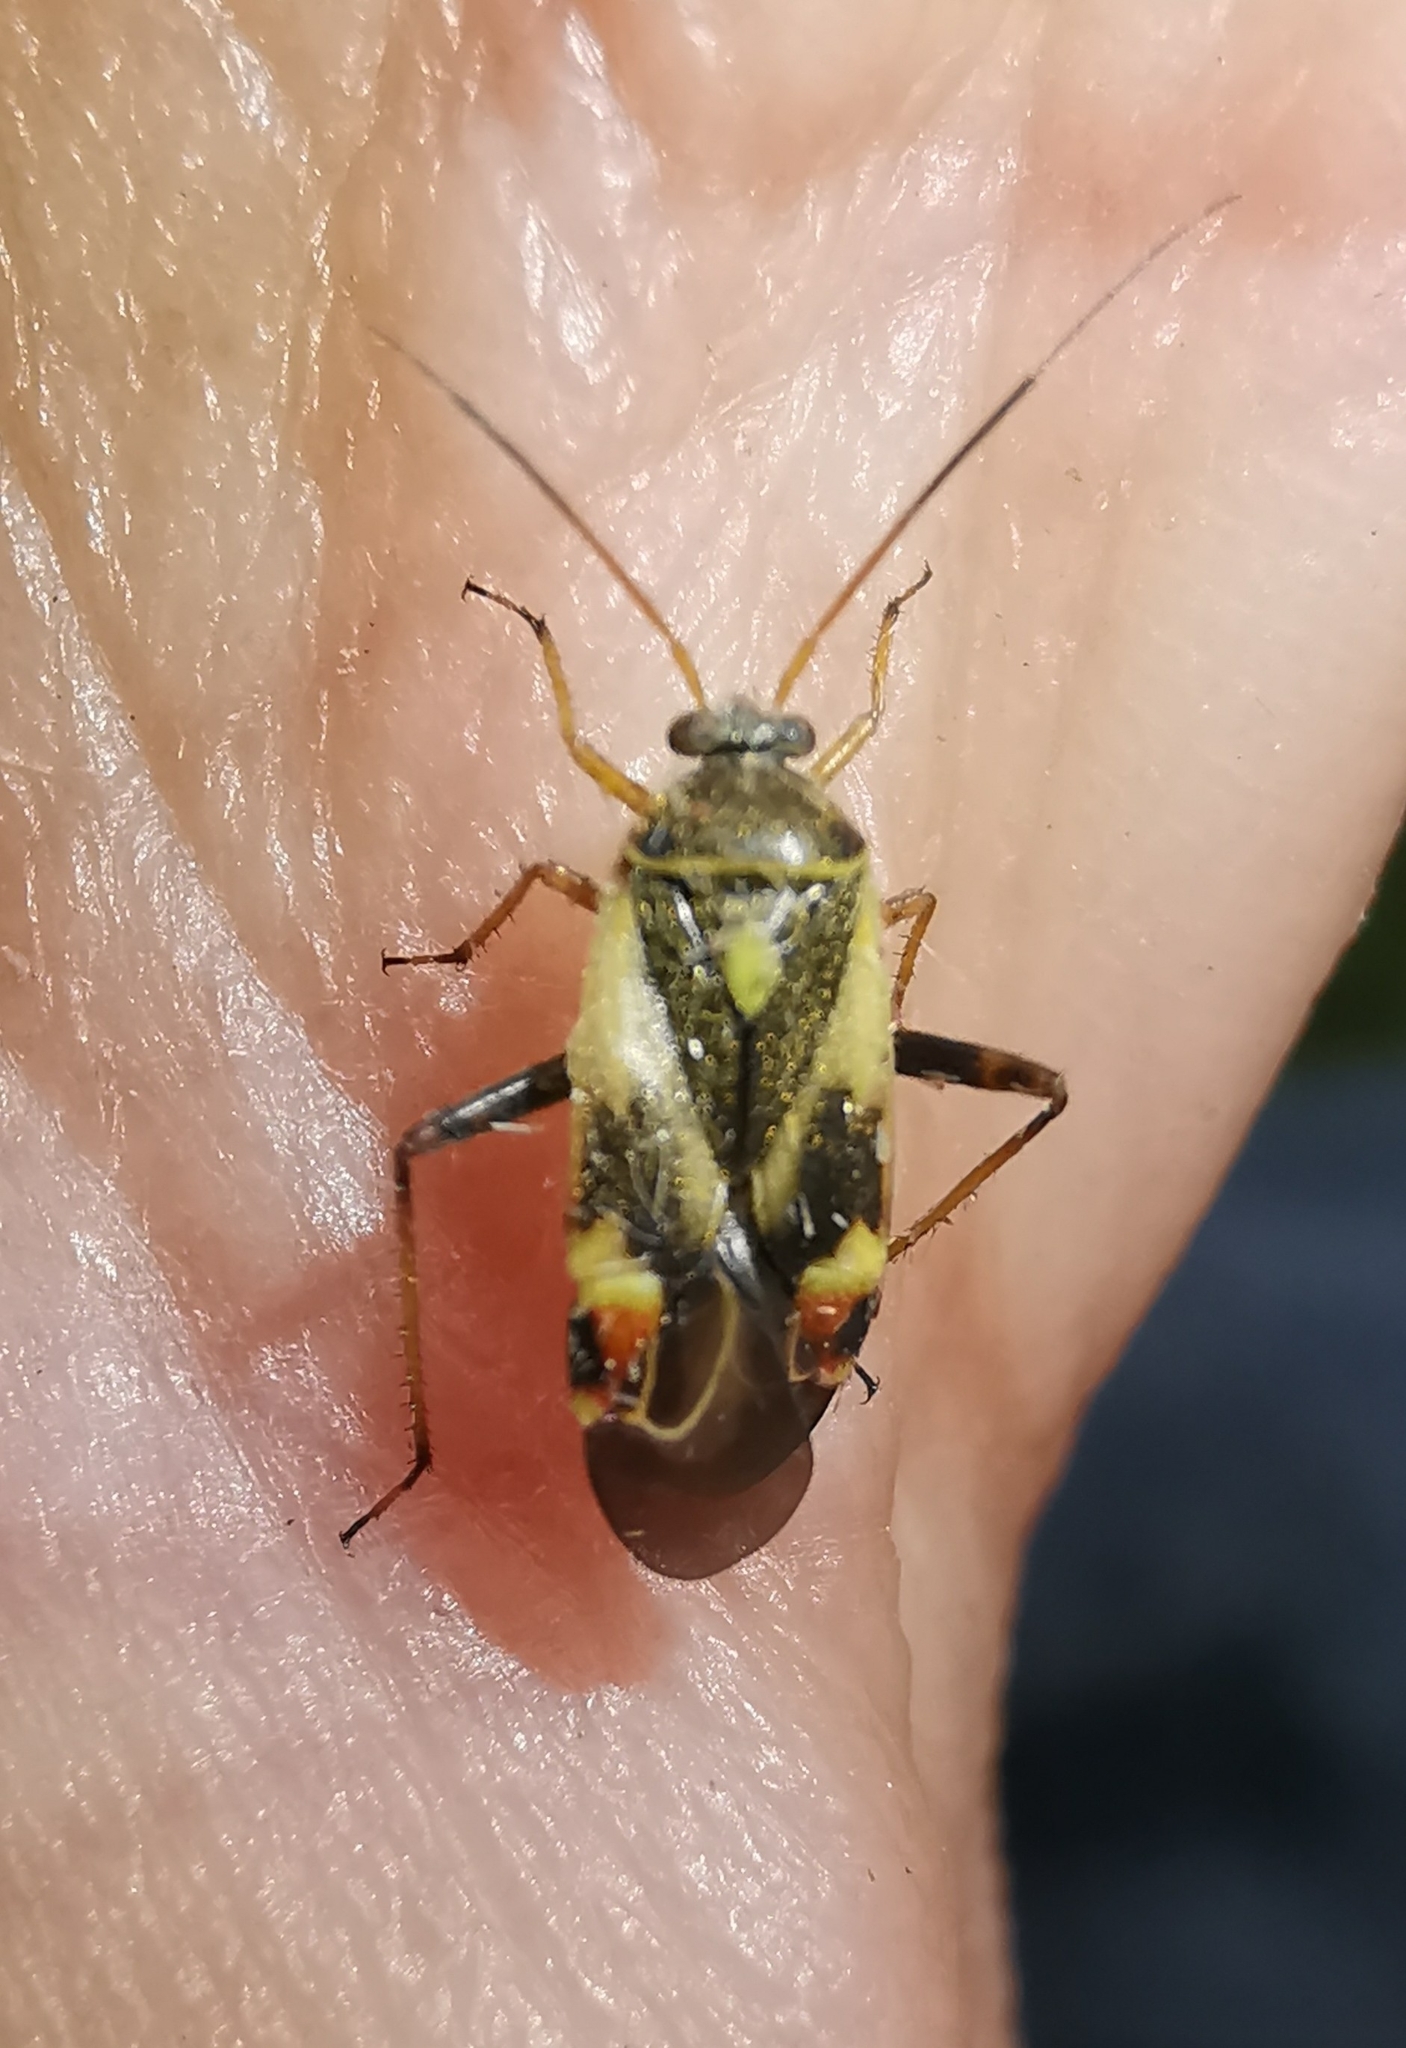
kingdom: Animalia
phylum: Arthropoda
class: Insecta
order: Hemiptera
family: Miridae
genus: Polymerus
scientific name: Polymerus unifasciatus
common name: Plant bug
